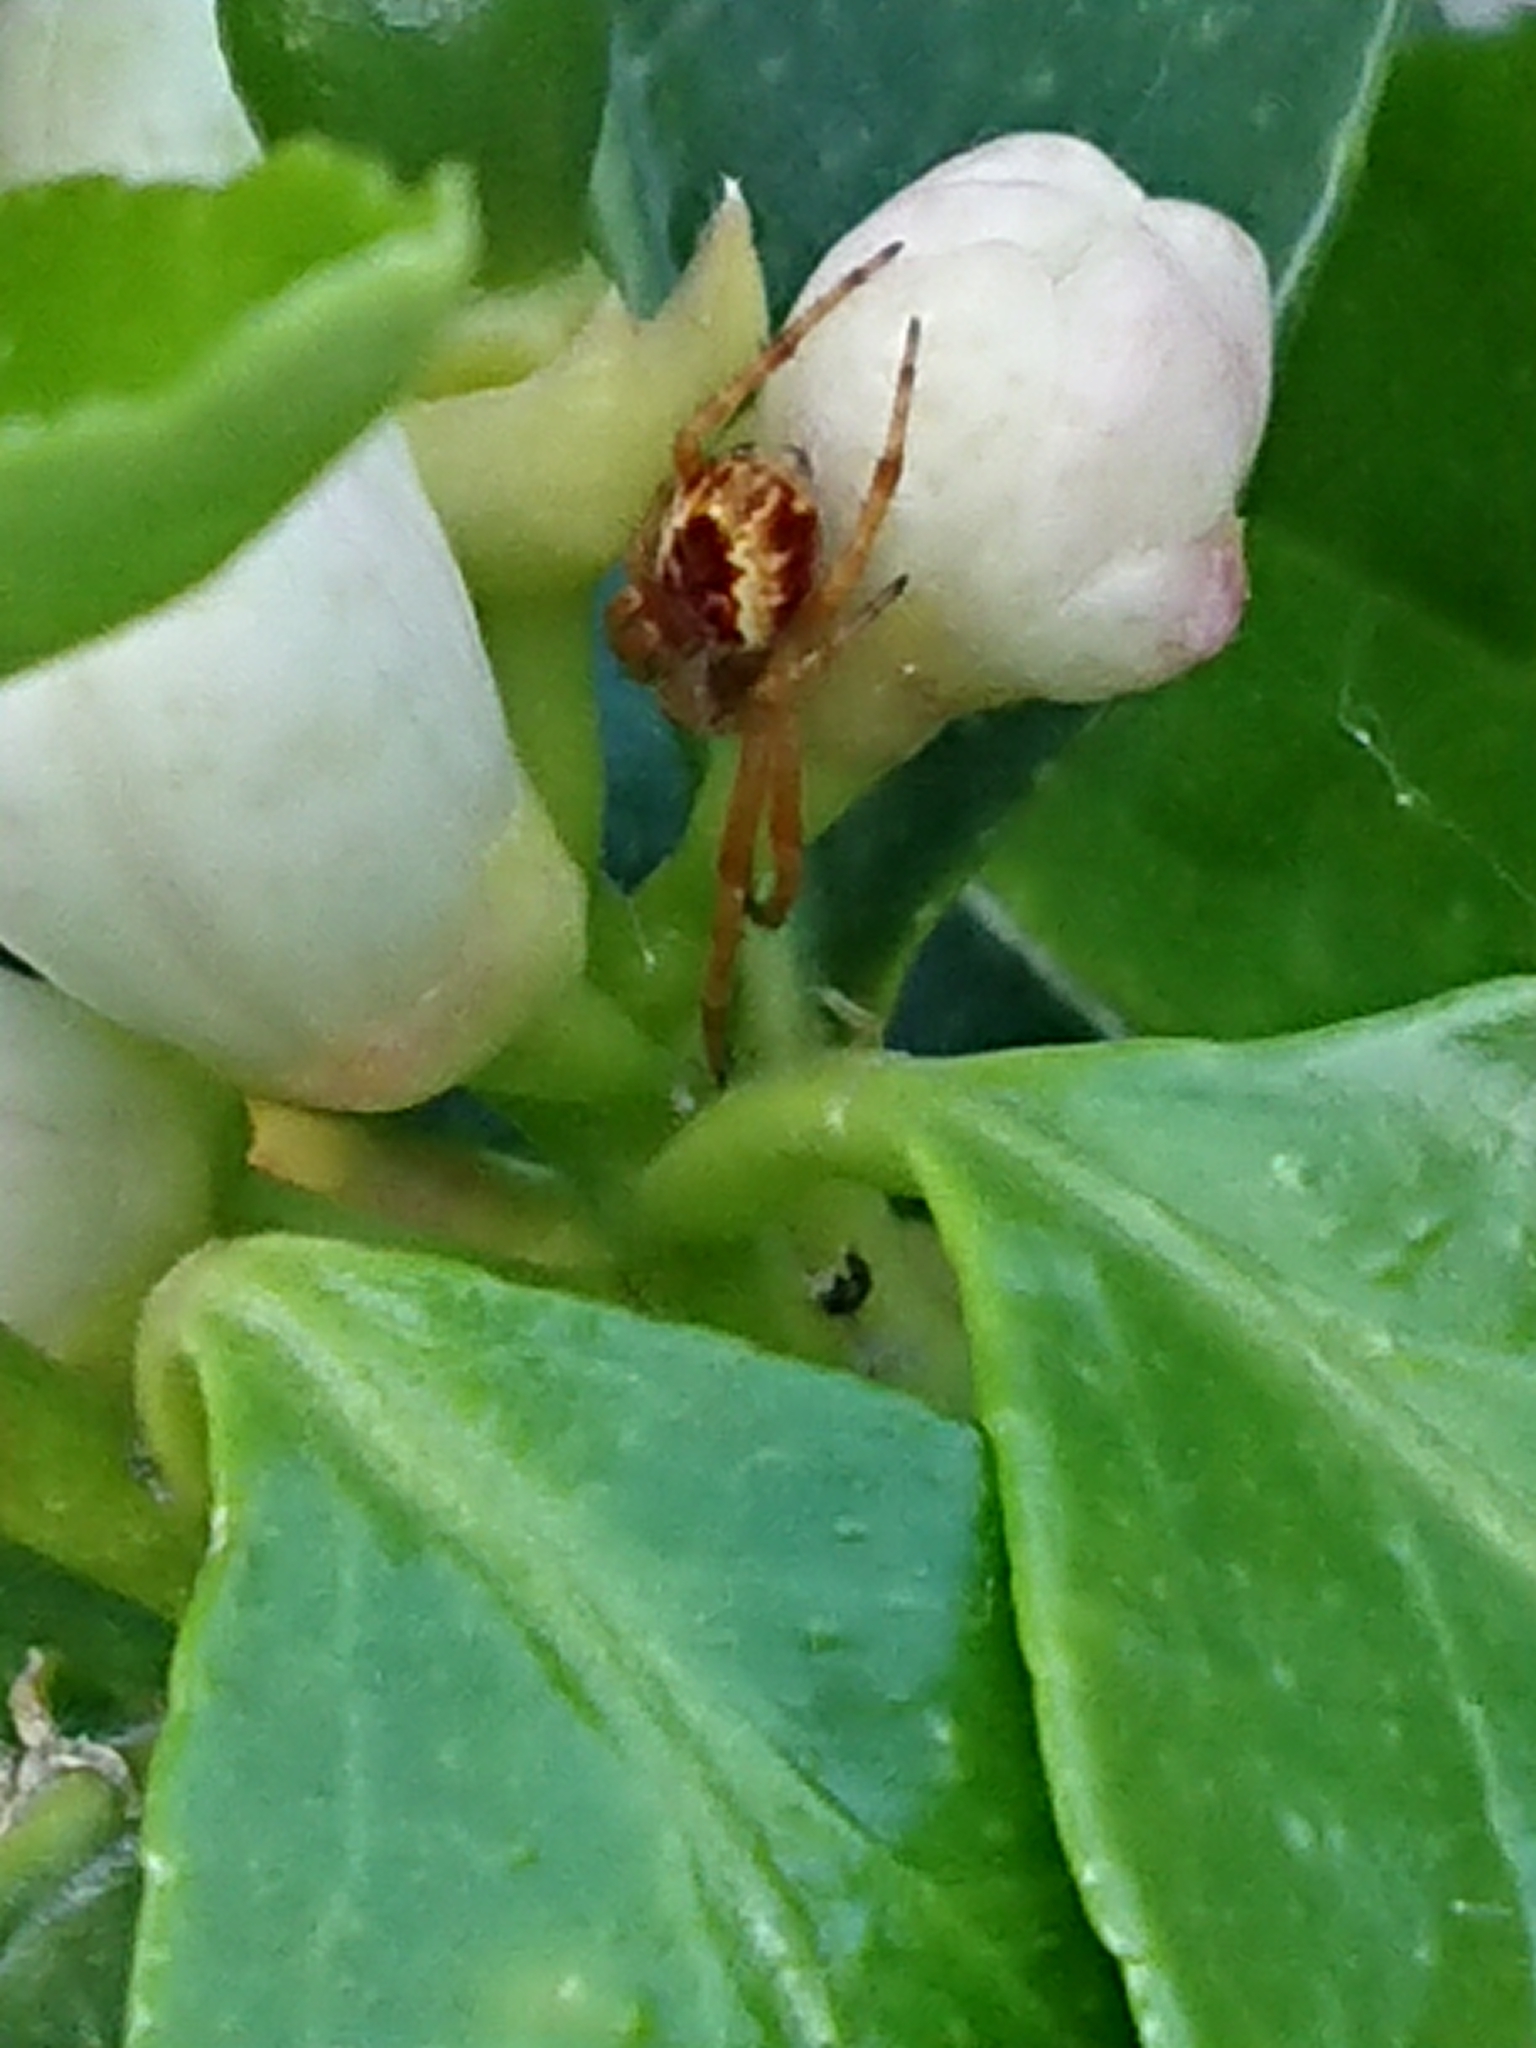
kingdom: Animalia
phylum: Arthropoda
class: Arachnida
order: Araneae
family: Araneidae
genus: Salsa
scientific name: Salsa fuliginata
